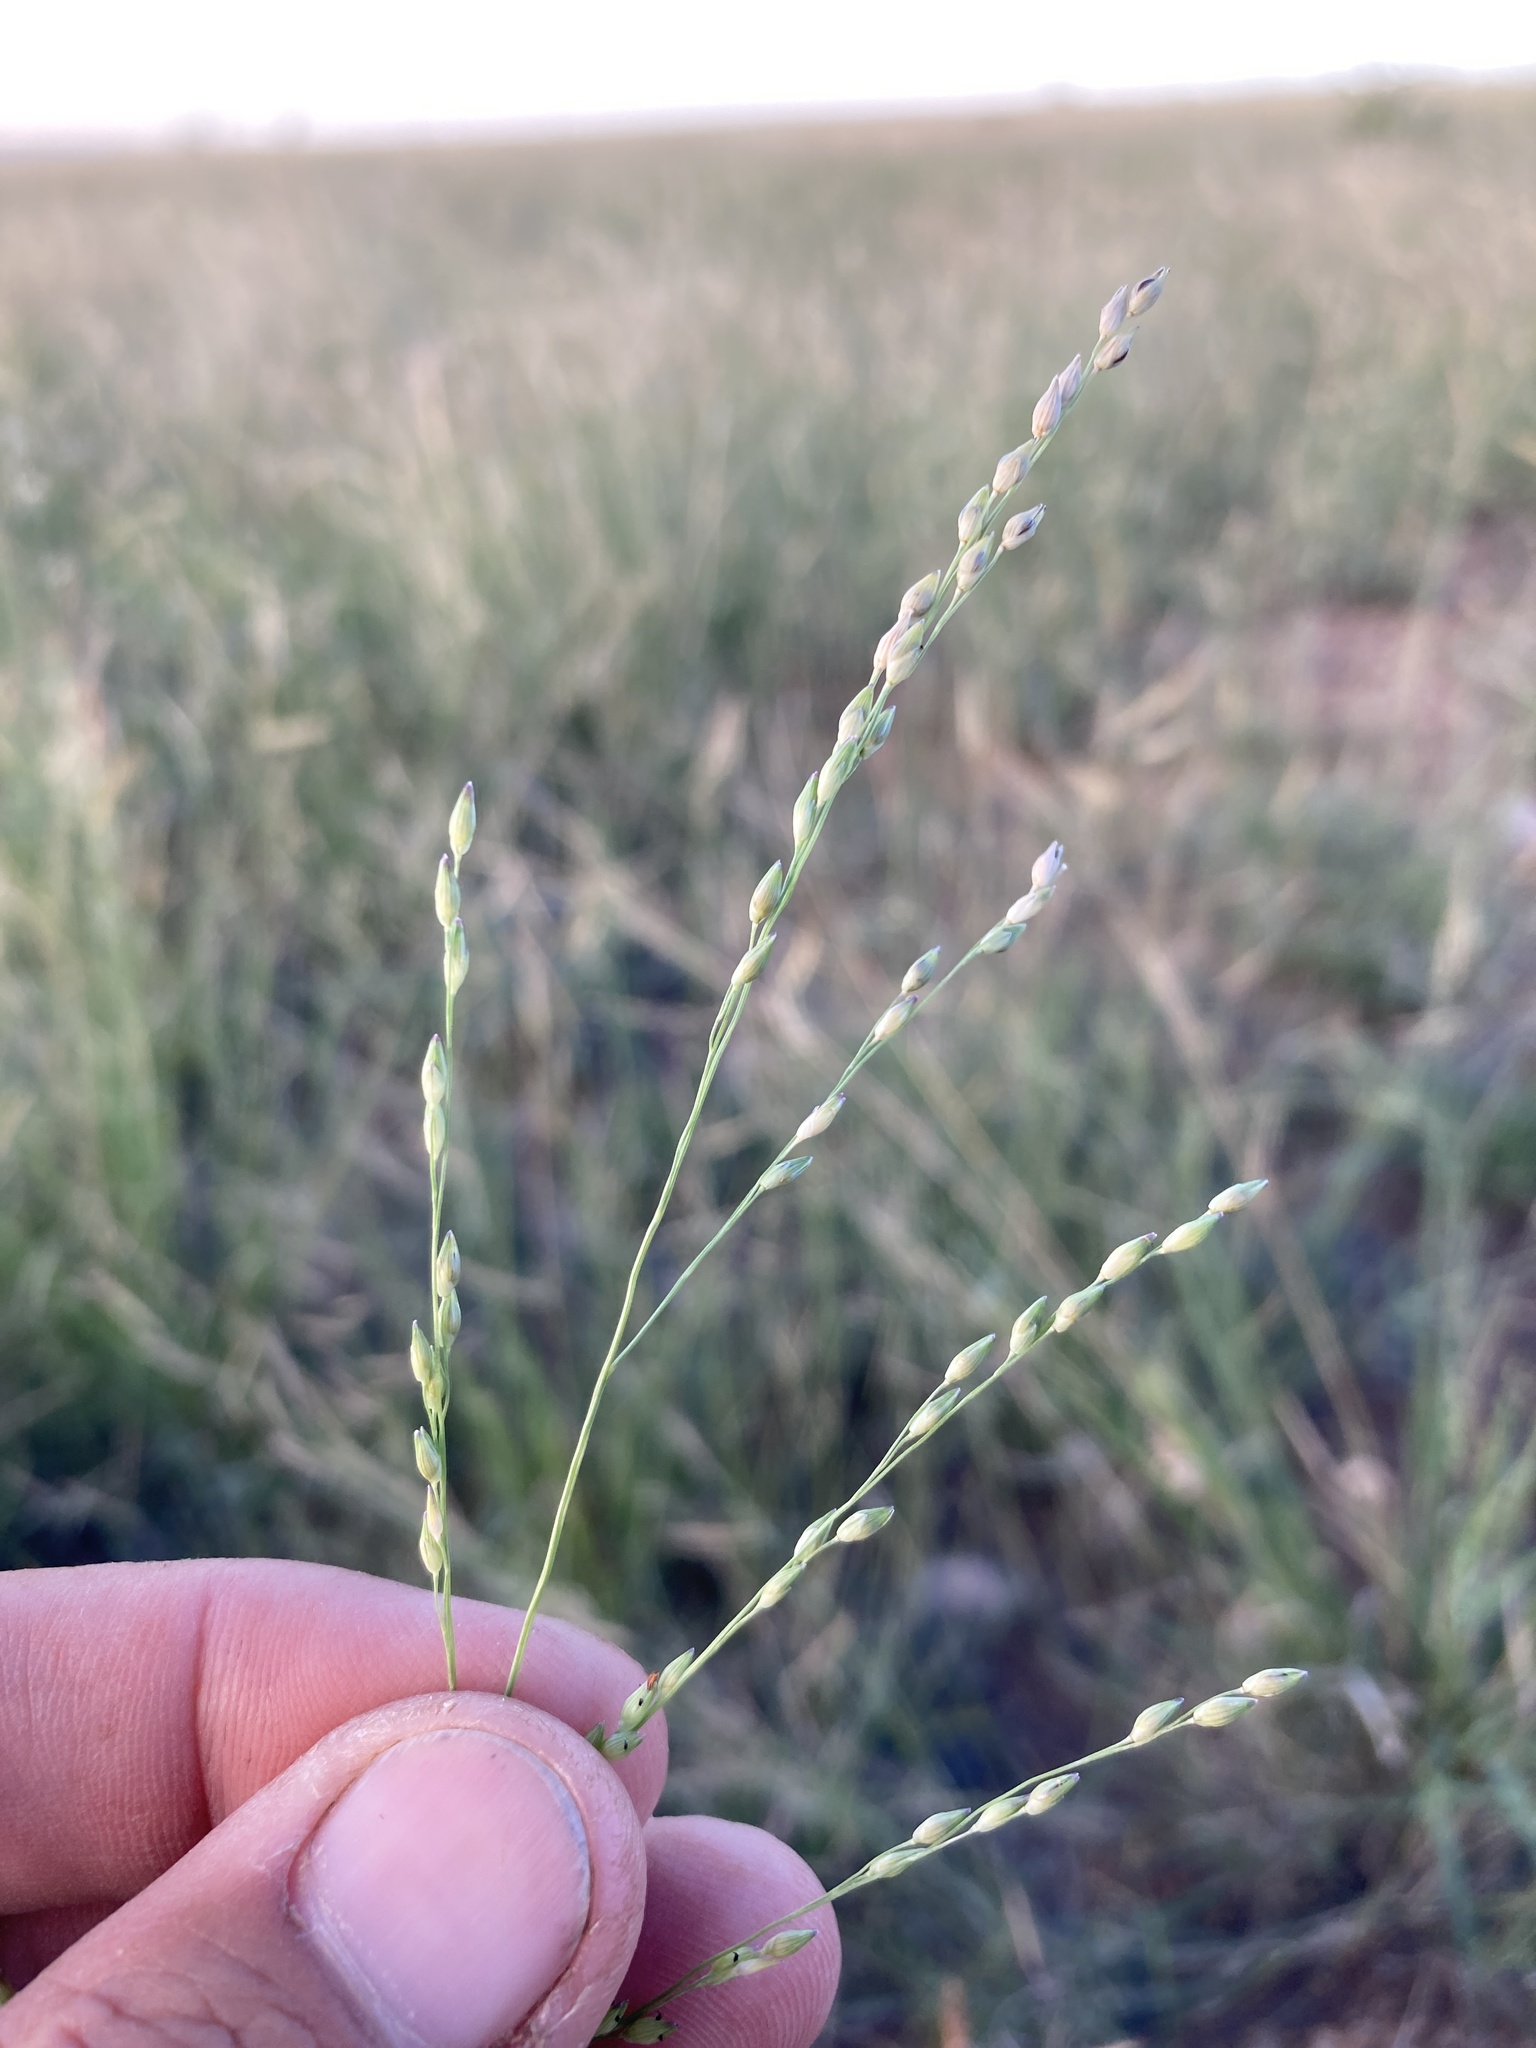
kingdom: Plantae
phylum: Tracheophyta
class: Liliopsida
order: Poales
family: Poaceae
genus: Panicum
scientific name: Panicum hallii
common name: Hall's witchgrass
